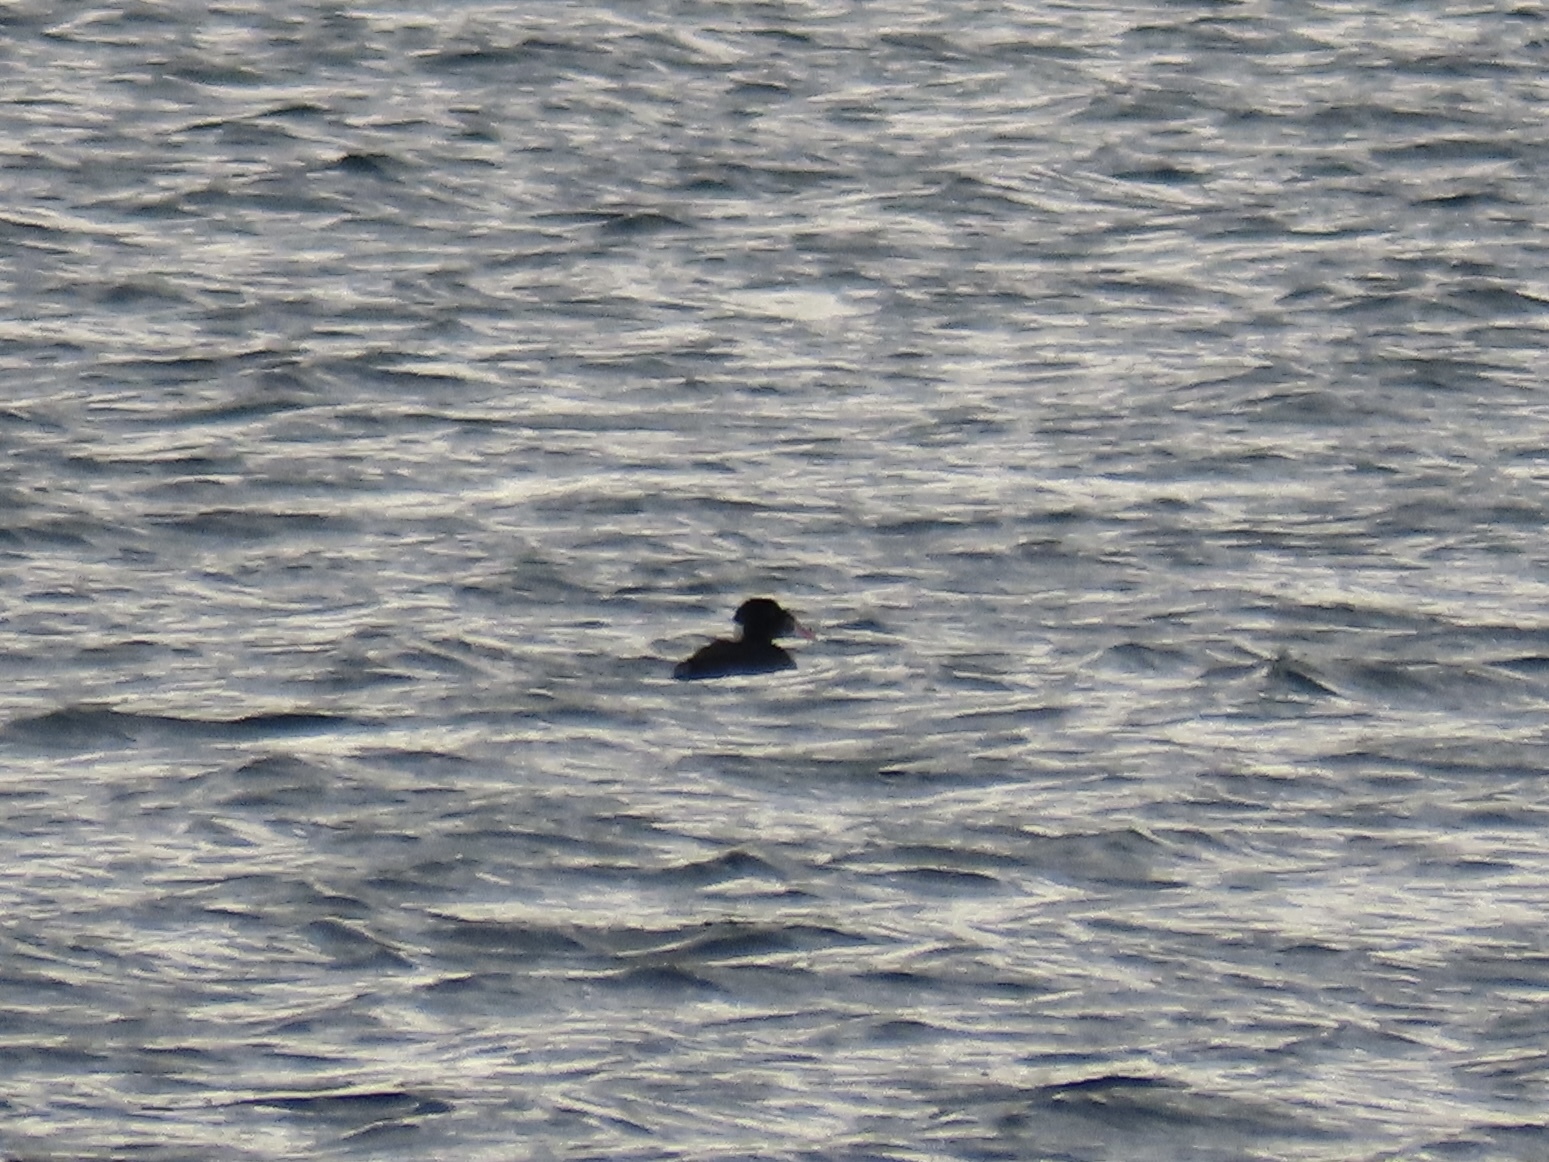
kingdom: Animalia
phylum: Chordata
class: Aves
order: Anseriformes
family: Anatidae
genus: Melanitta
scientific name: Melanitta perspicillata
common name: Surf scoter
